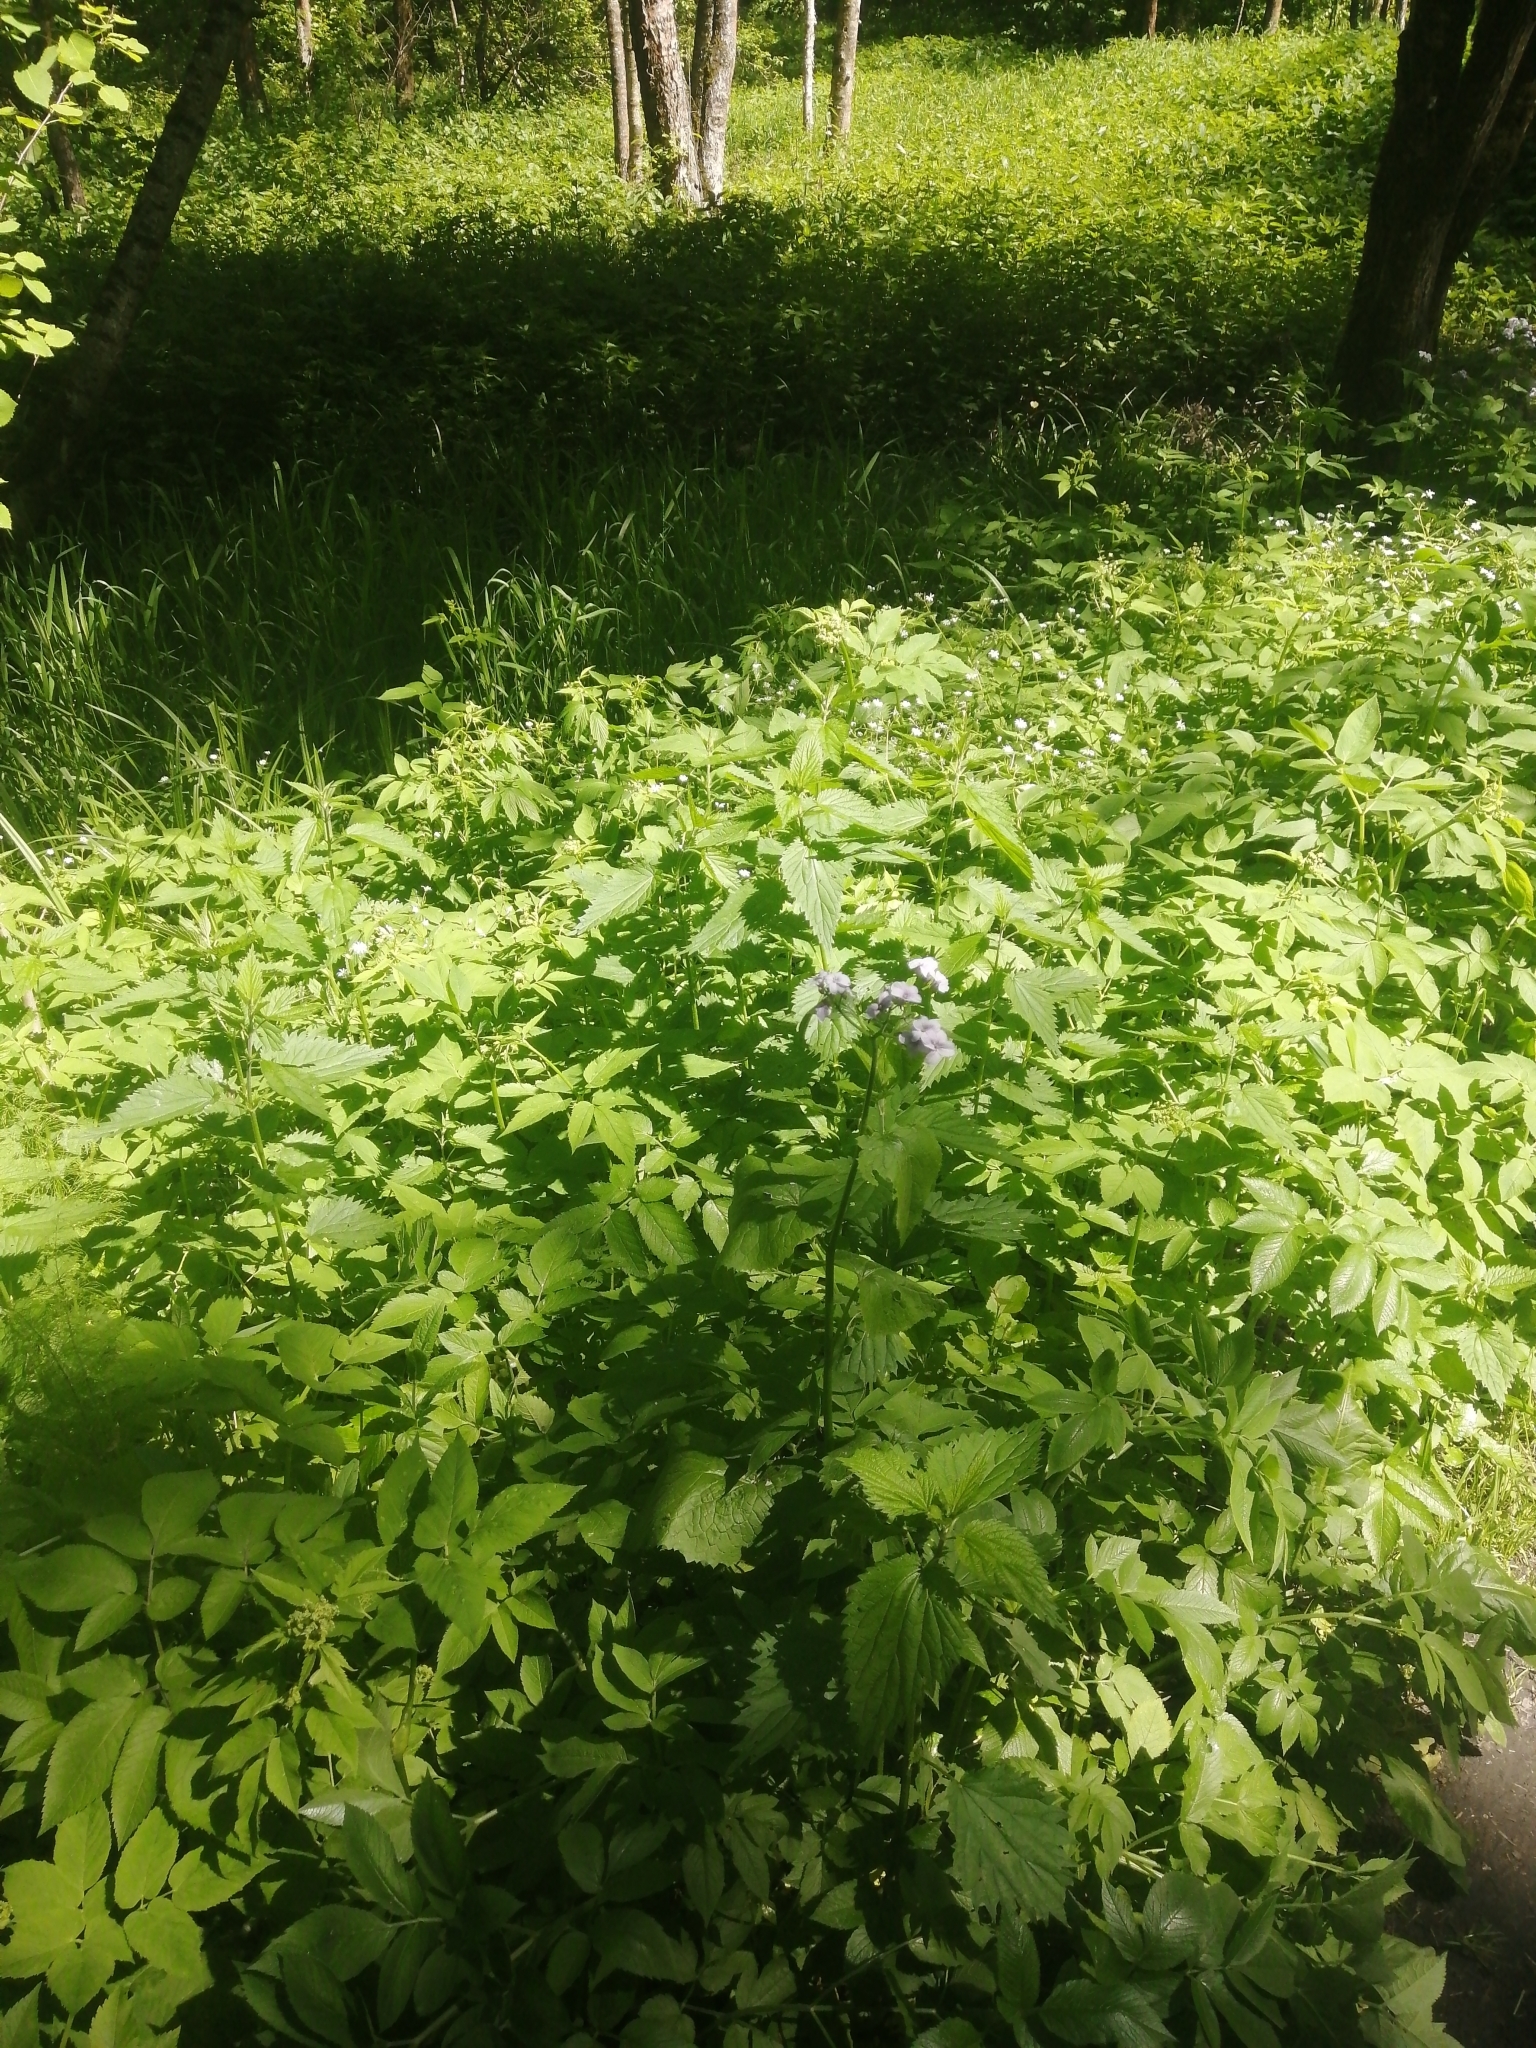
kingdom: Plantae
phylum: Tracheophyta
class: Magnoliopsida
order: Brassicales
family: Brassicaceae
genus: Lunaria
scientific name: Lunaria rediviva
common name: Perennial honesty
